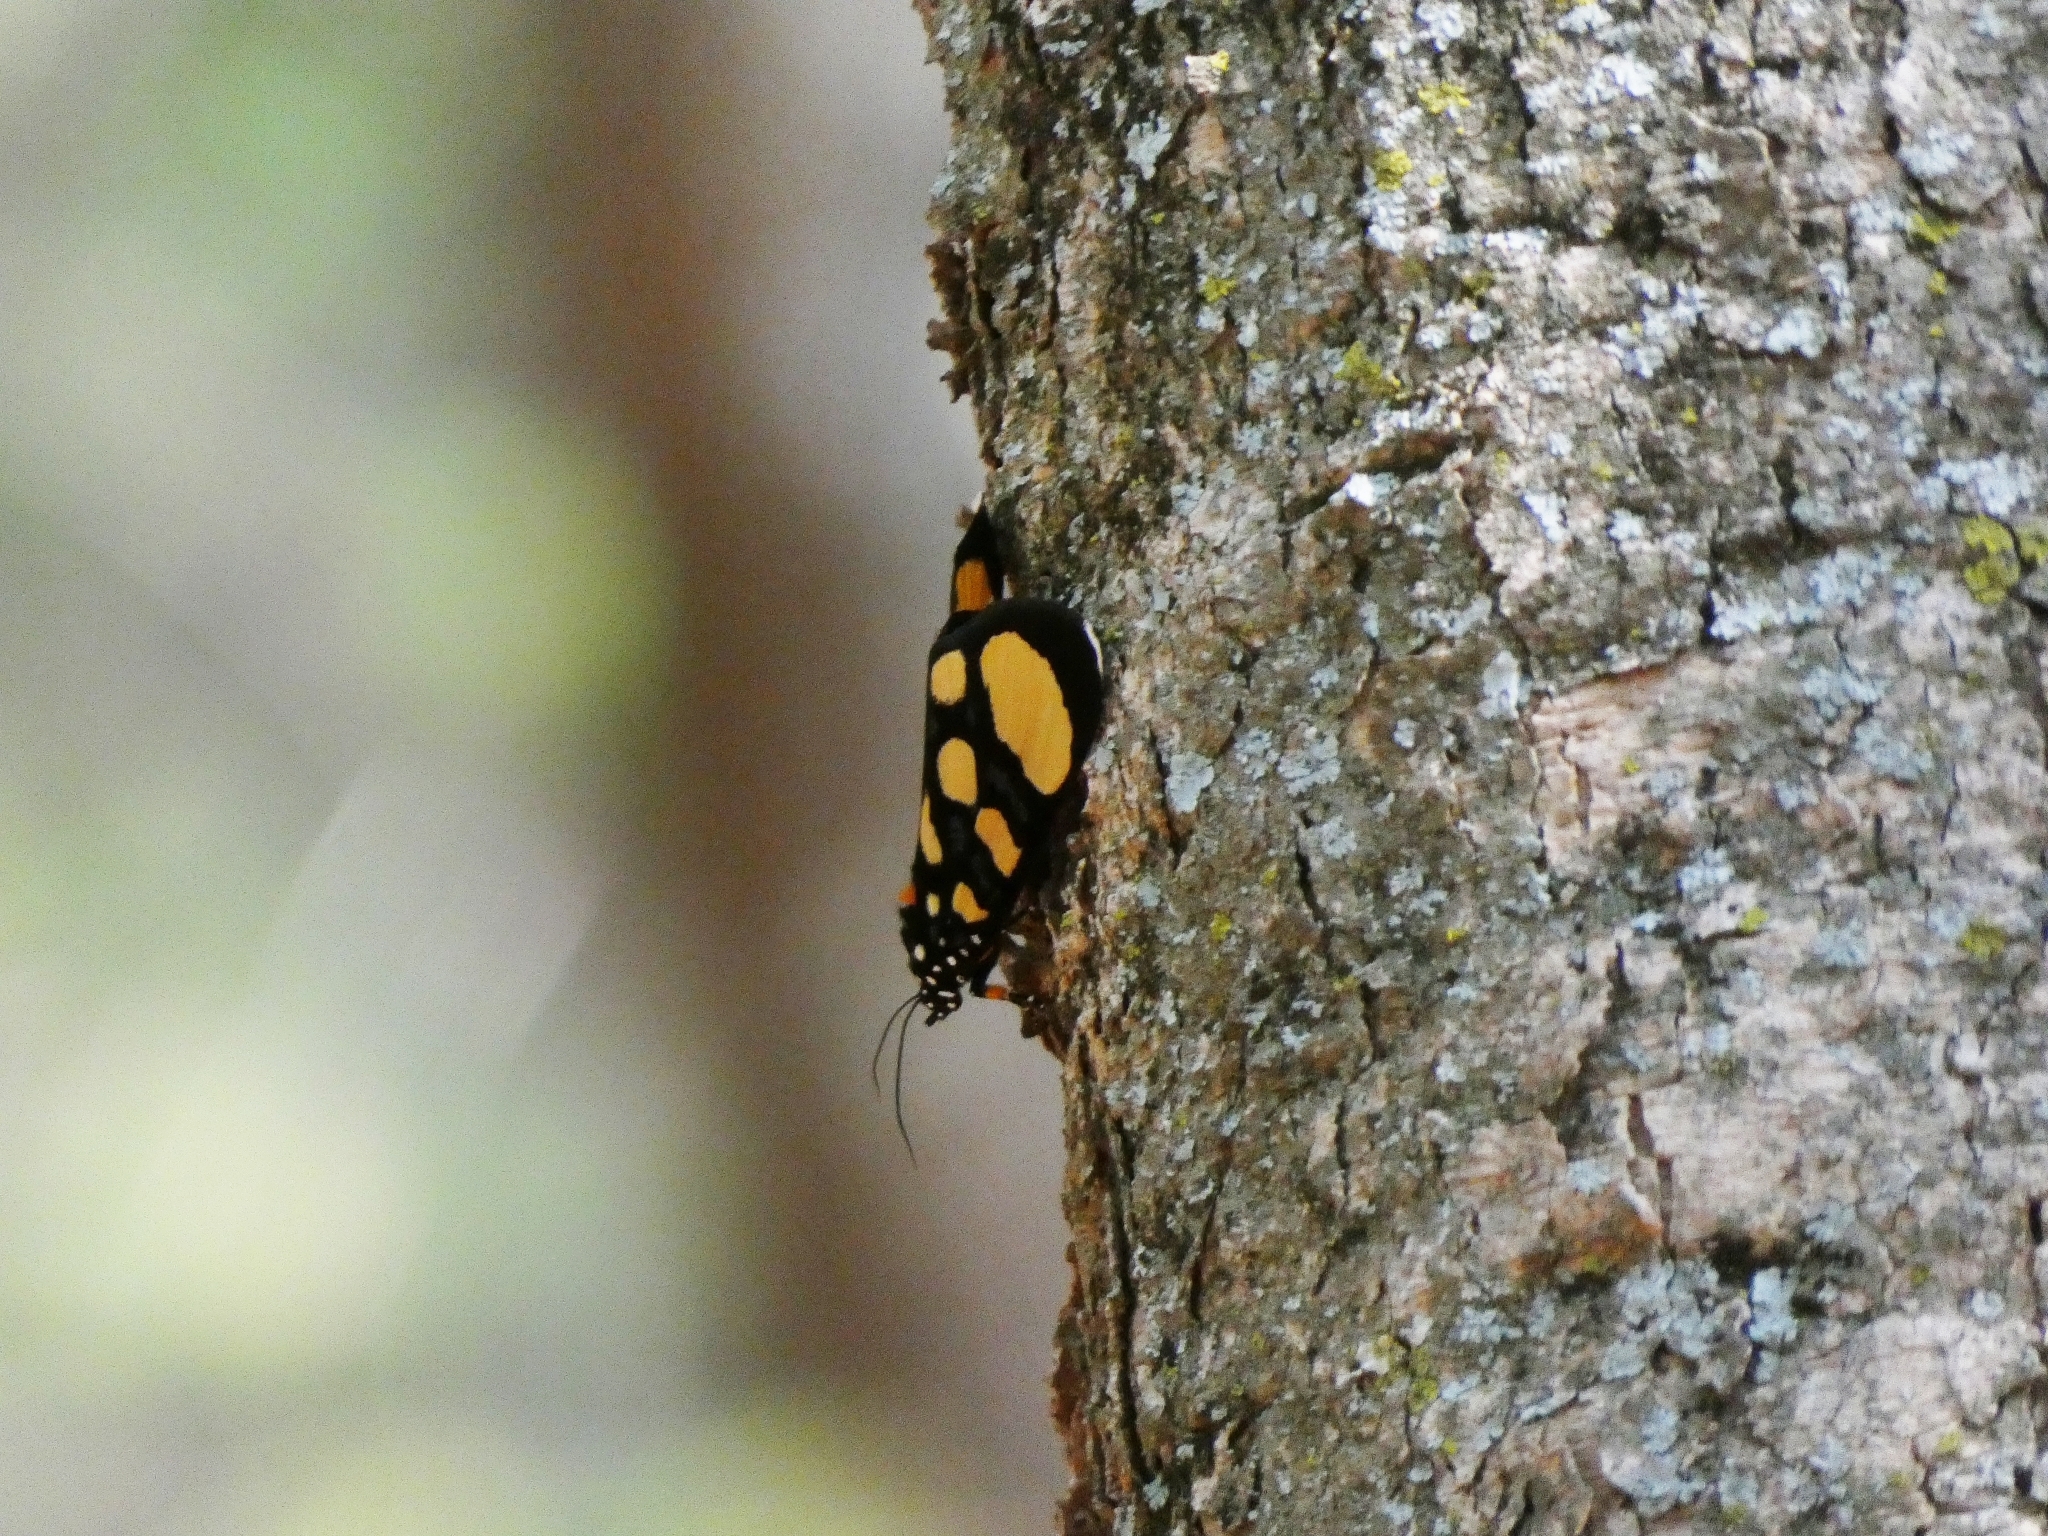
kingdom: Animalia
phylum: Arthropoda
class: Insecta
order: Lepidoptera
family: Noctuidae
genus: Heraclia
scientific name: Heraclia superba
